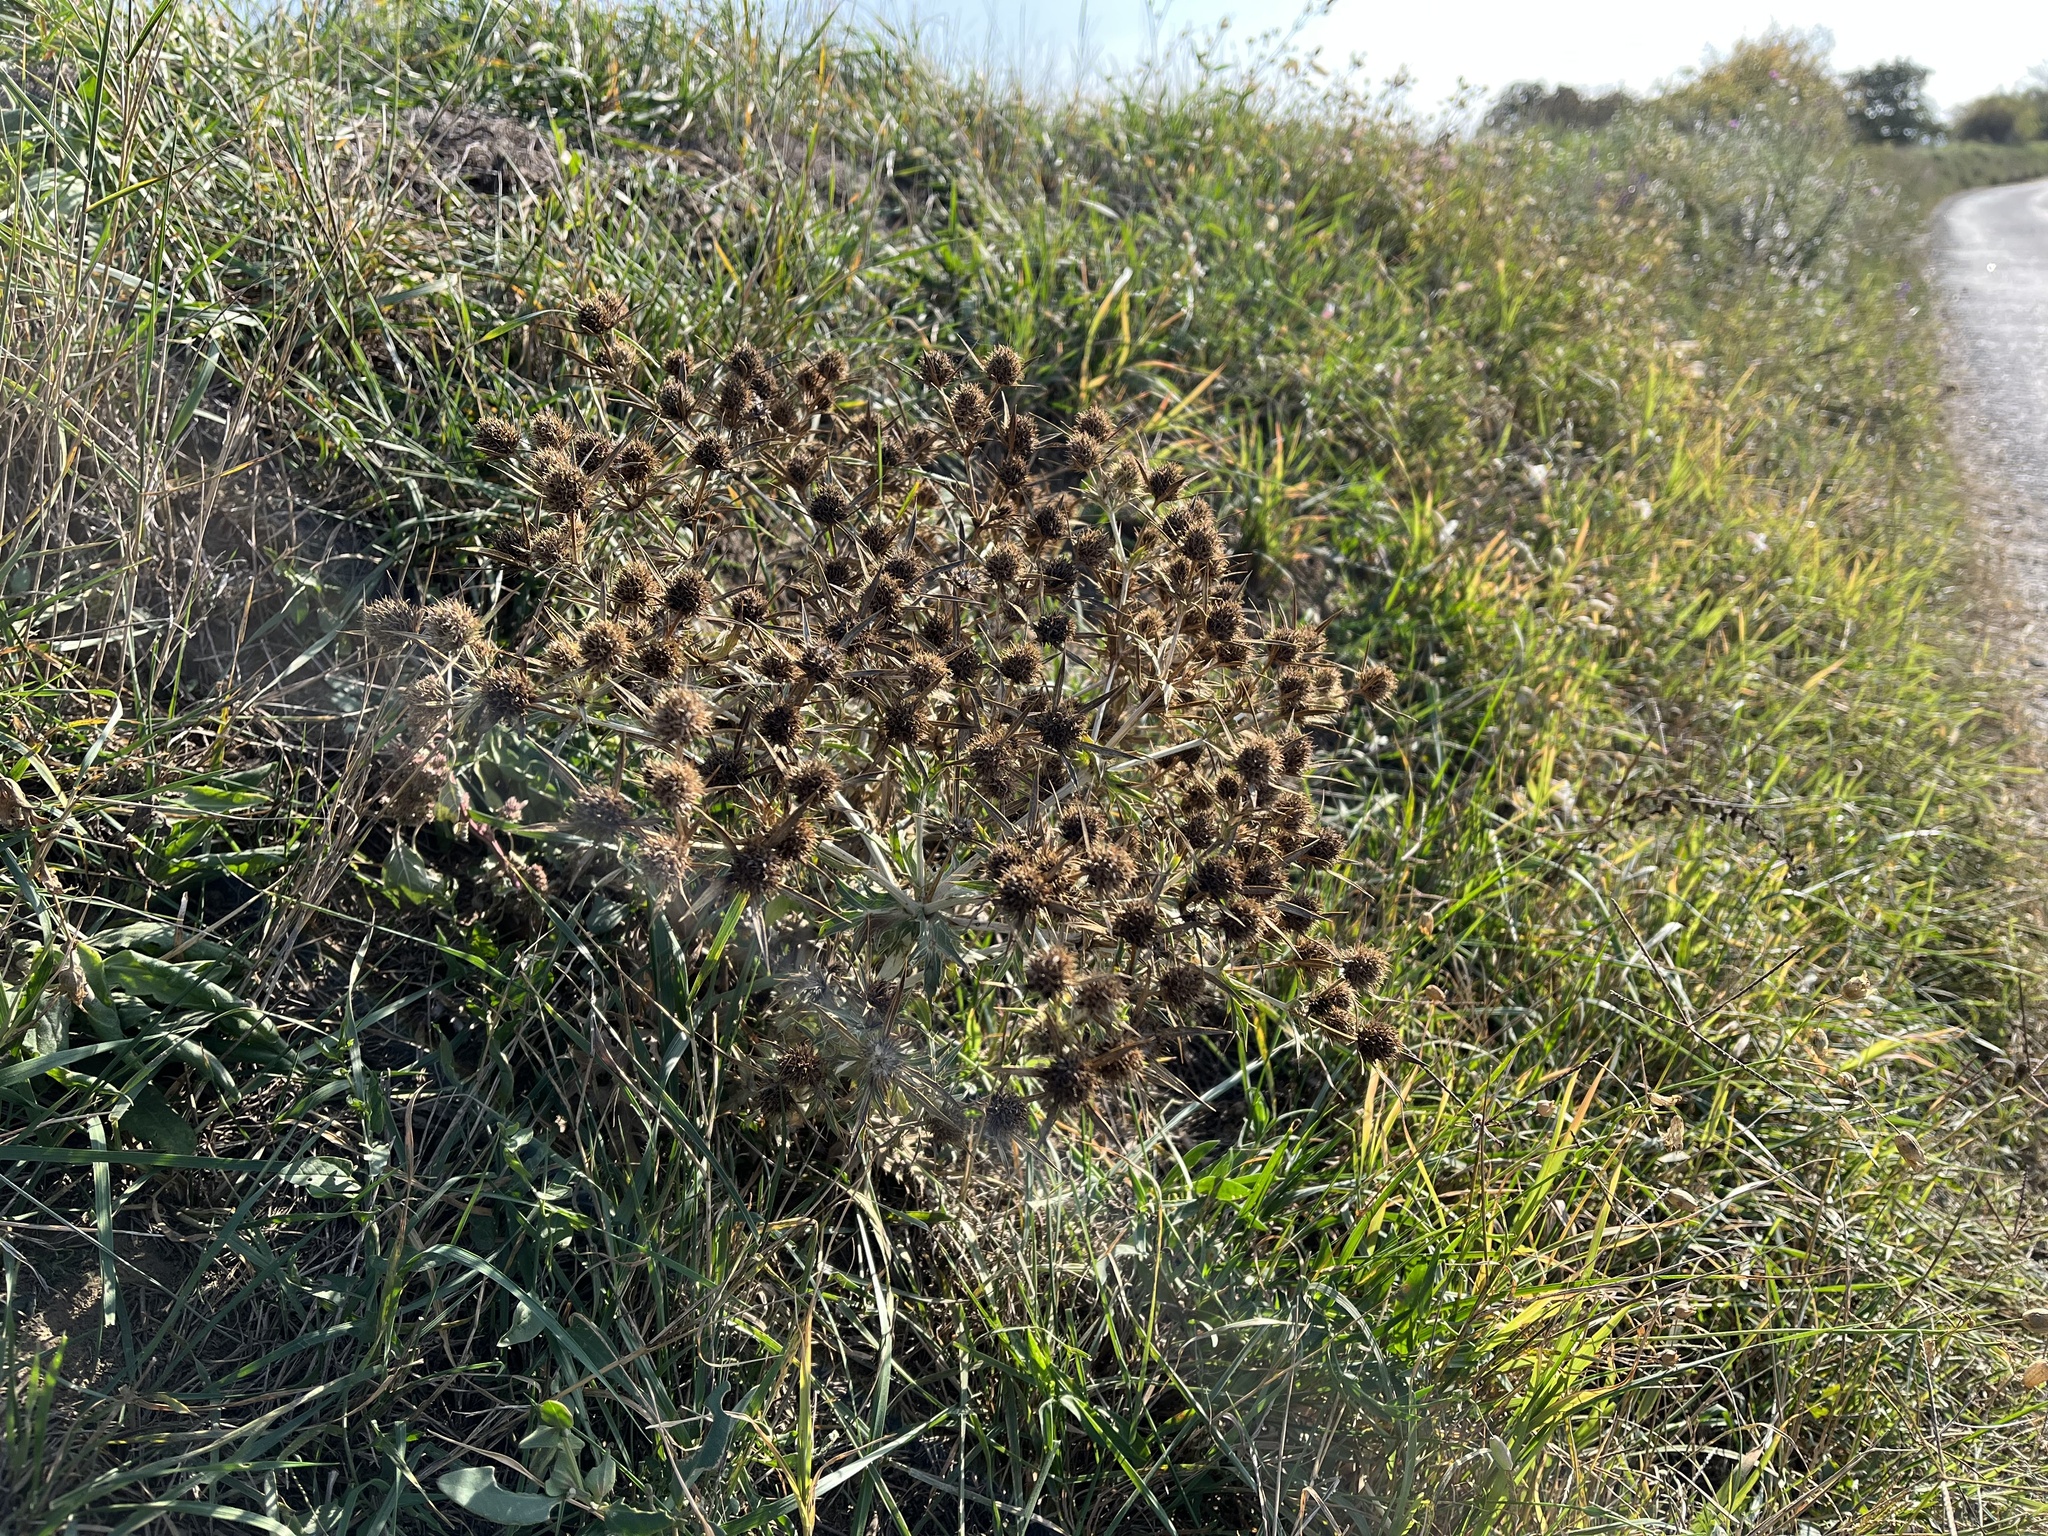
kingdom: Plantae
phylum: Tracheophyta
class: Magnoliopsida
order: Apiales
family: Apiaceae
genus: Eryngium
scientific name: Eryngium campestre
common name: Field eryngo
